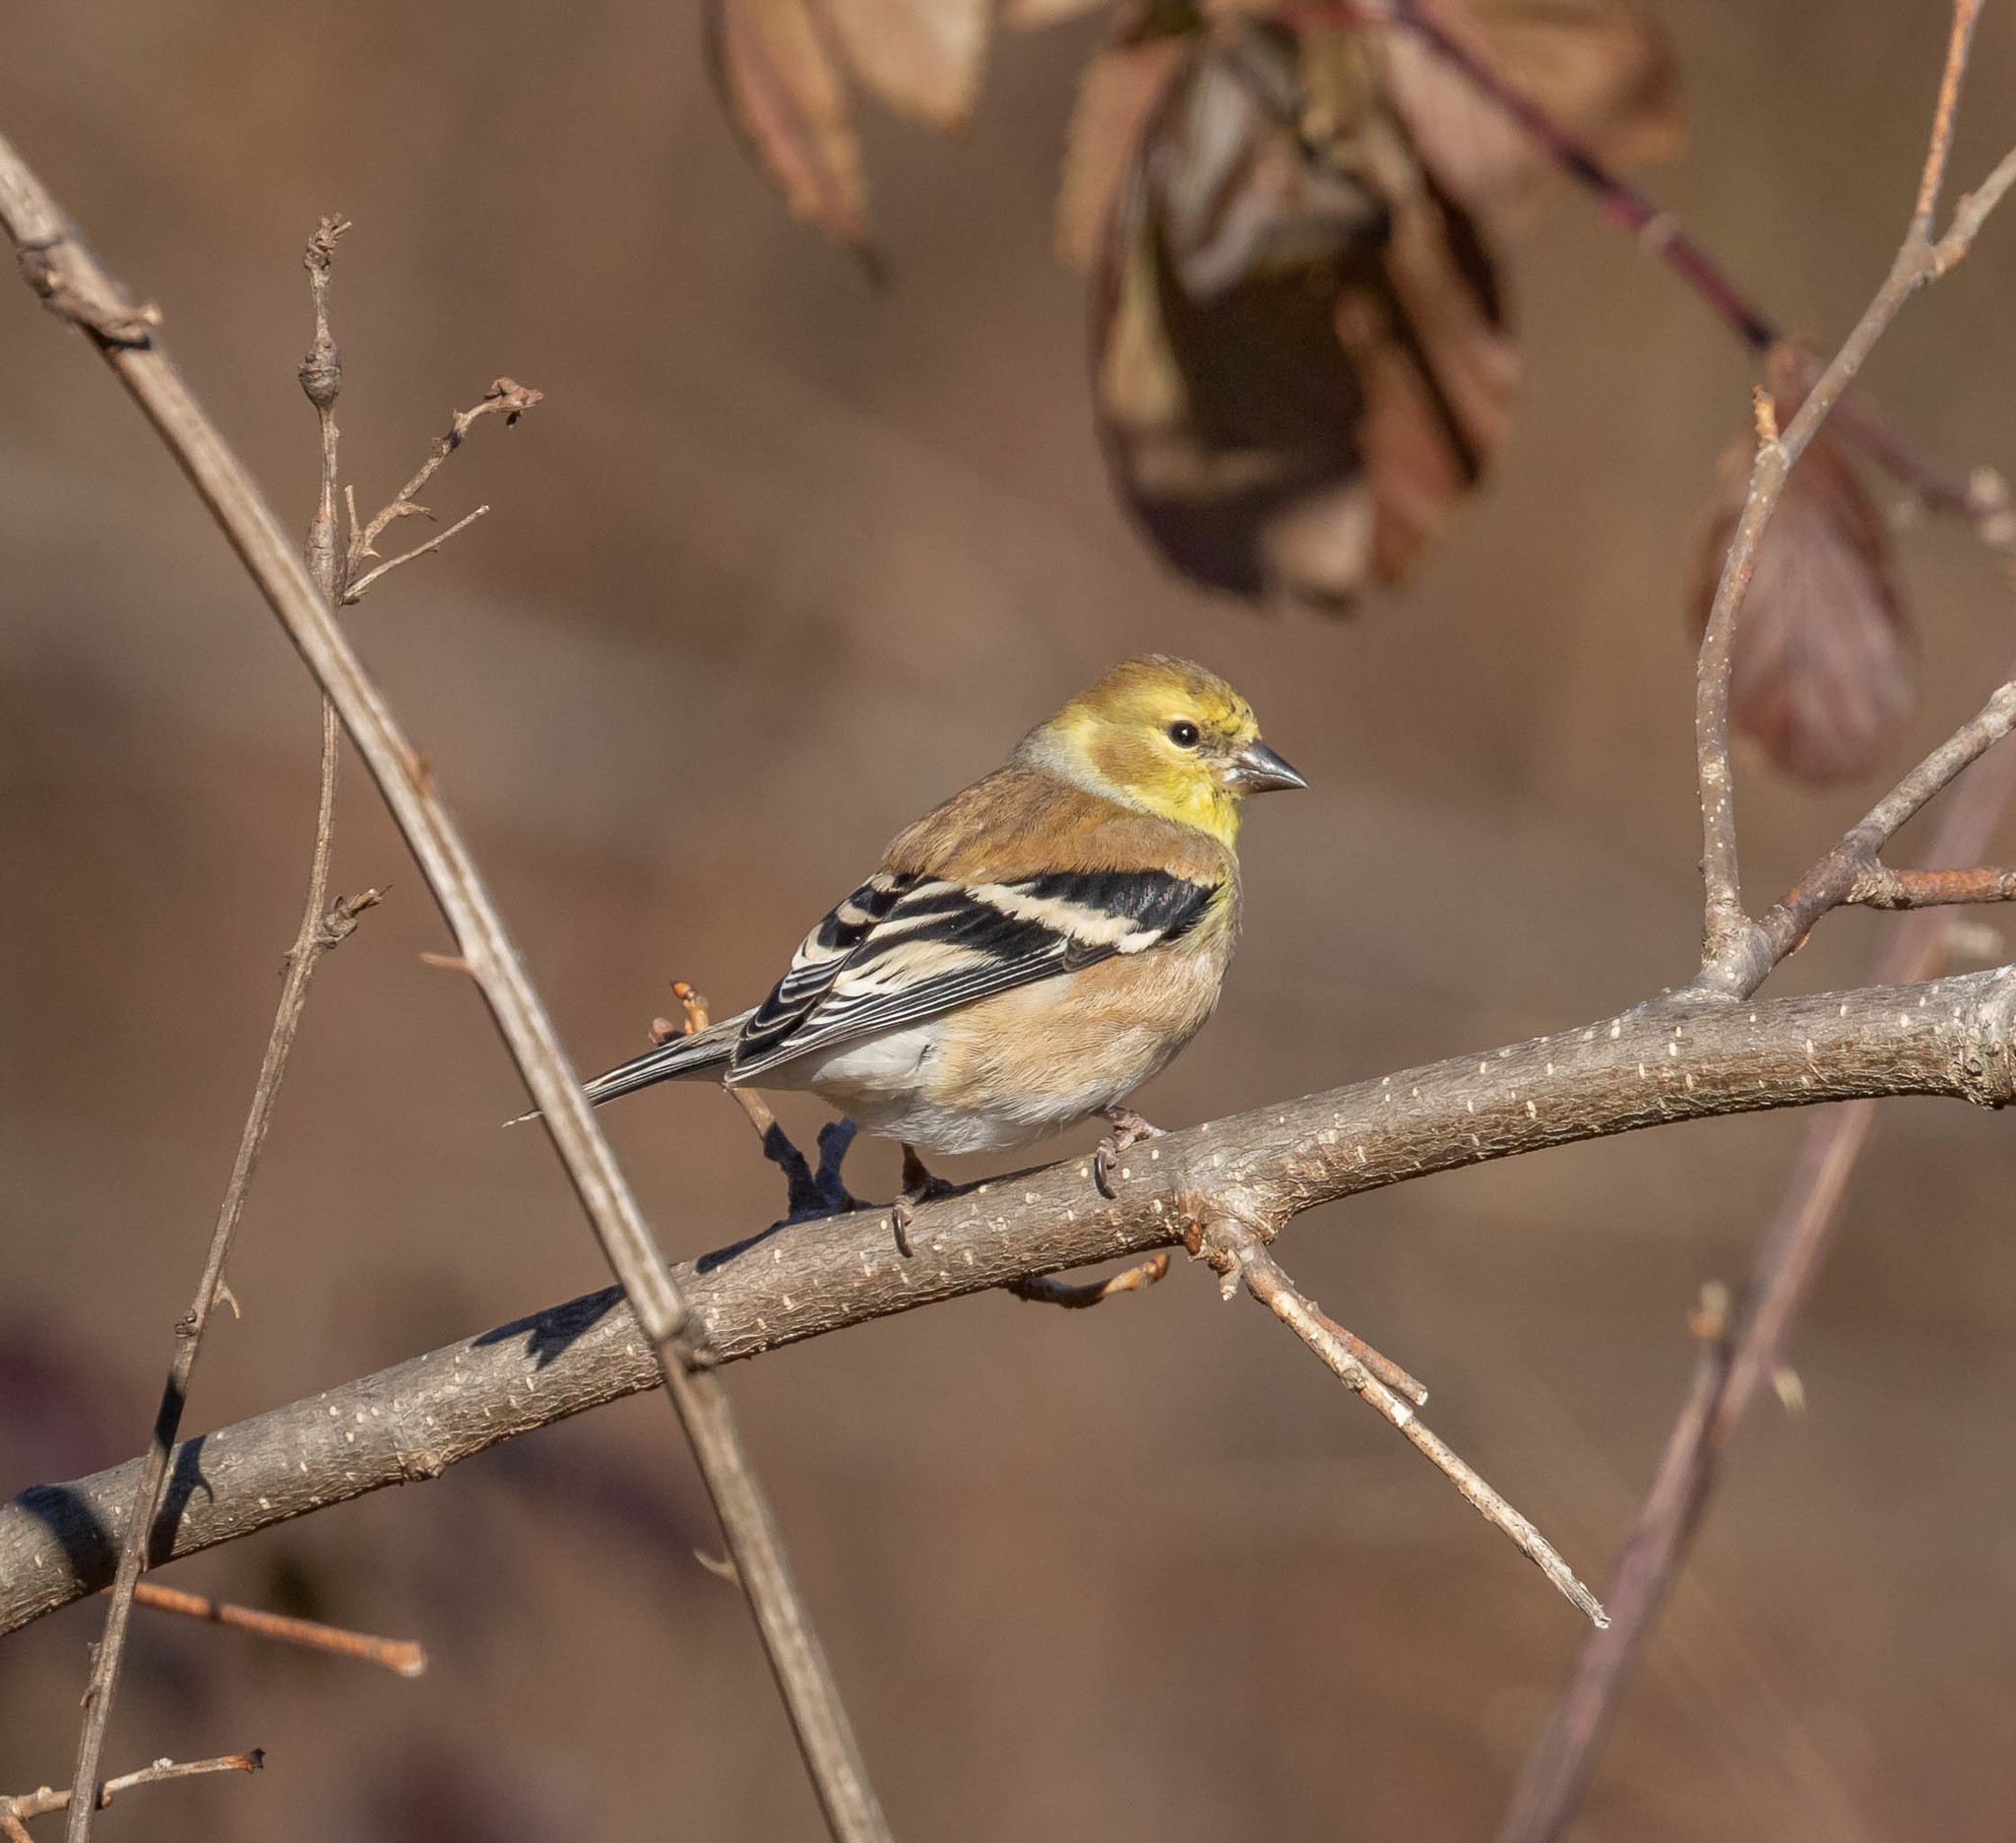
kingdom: Animalia
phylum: Chordata
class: Aves
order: Passeriformes
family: Fringillidae
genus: Spinus
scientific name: Spinus tristis
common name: American goldfinch
